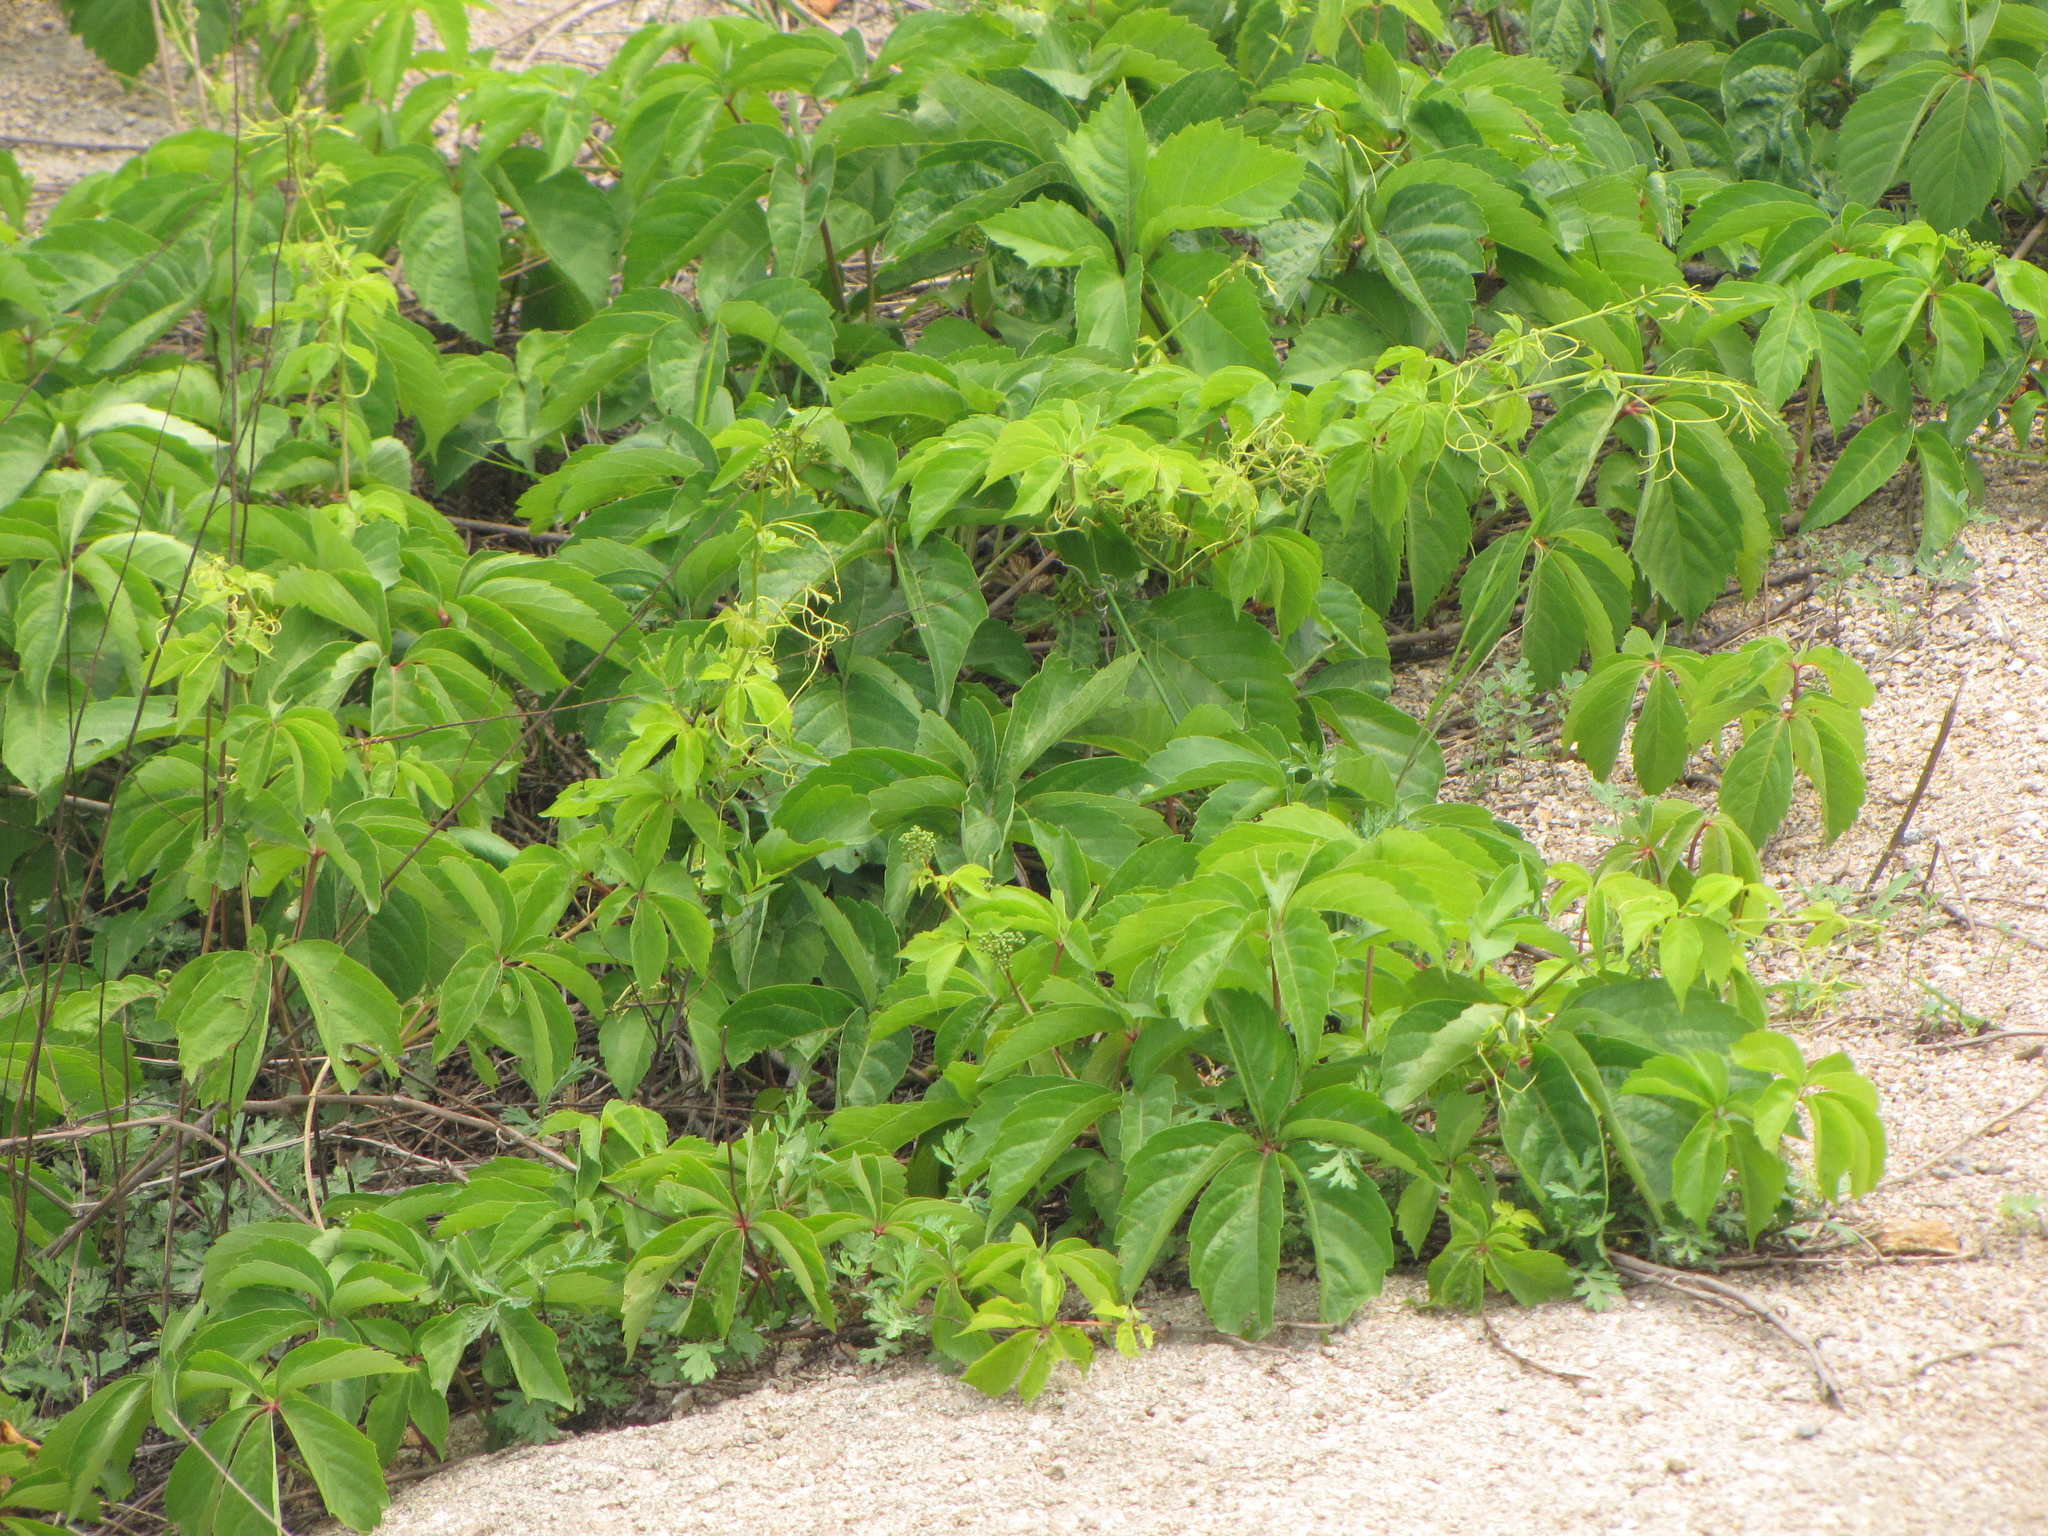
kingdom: Plantae
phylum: Tracheophyta
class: Magnoliopsida
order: Vitales
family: Vitaceae
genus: Parthenocissus
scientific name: Parthenocissus quinquefolia
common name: Virginia-creeper
